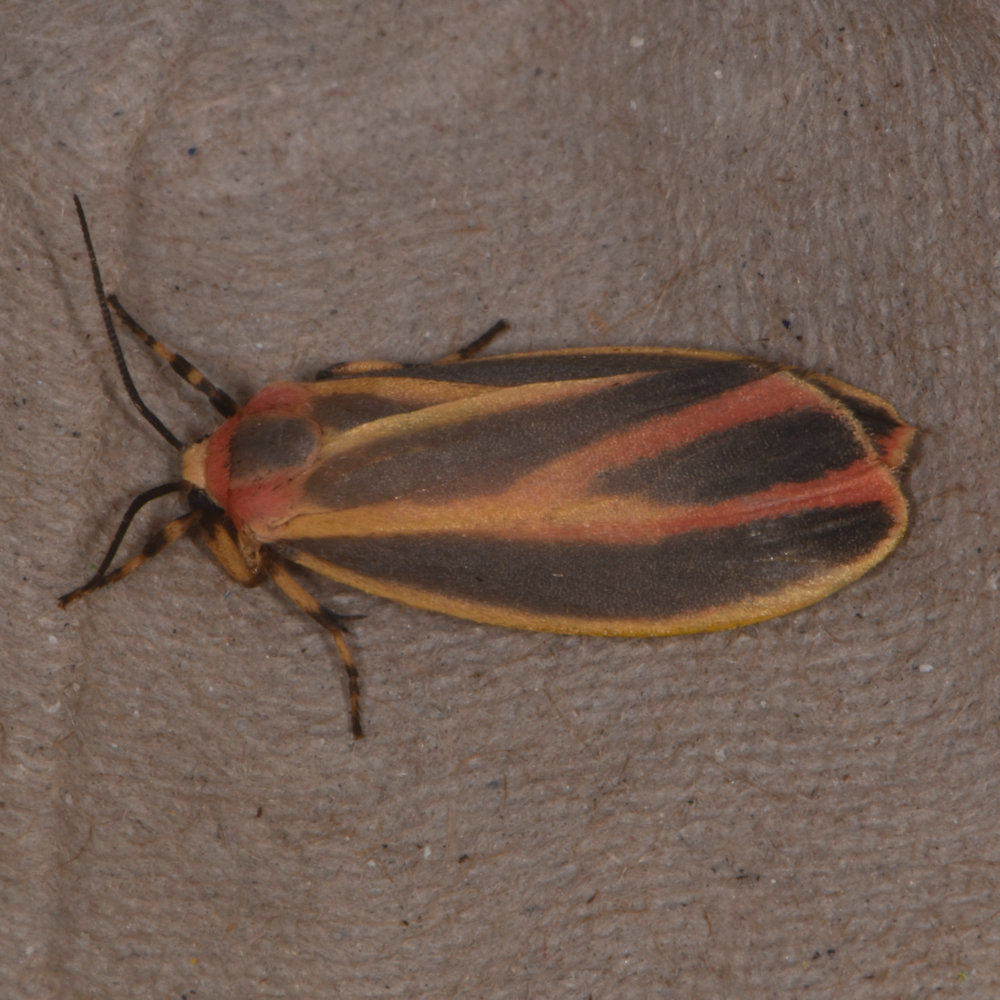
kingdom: Animalia
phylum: Arthropoda
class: Insecta
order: Lepidoptera
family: Erebidae
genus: Hypoprepia
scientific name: Hypoprepia fucosa
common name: Painted lichen moth
